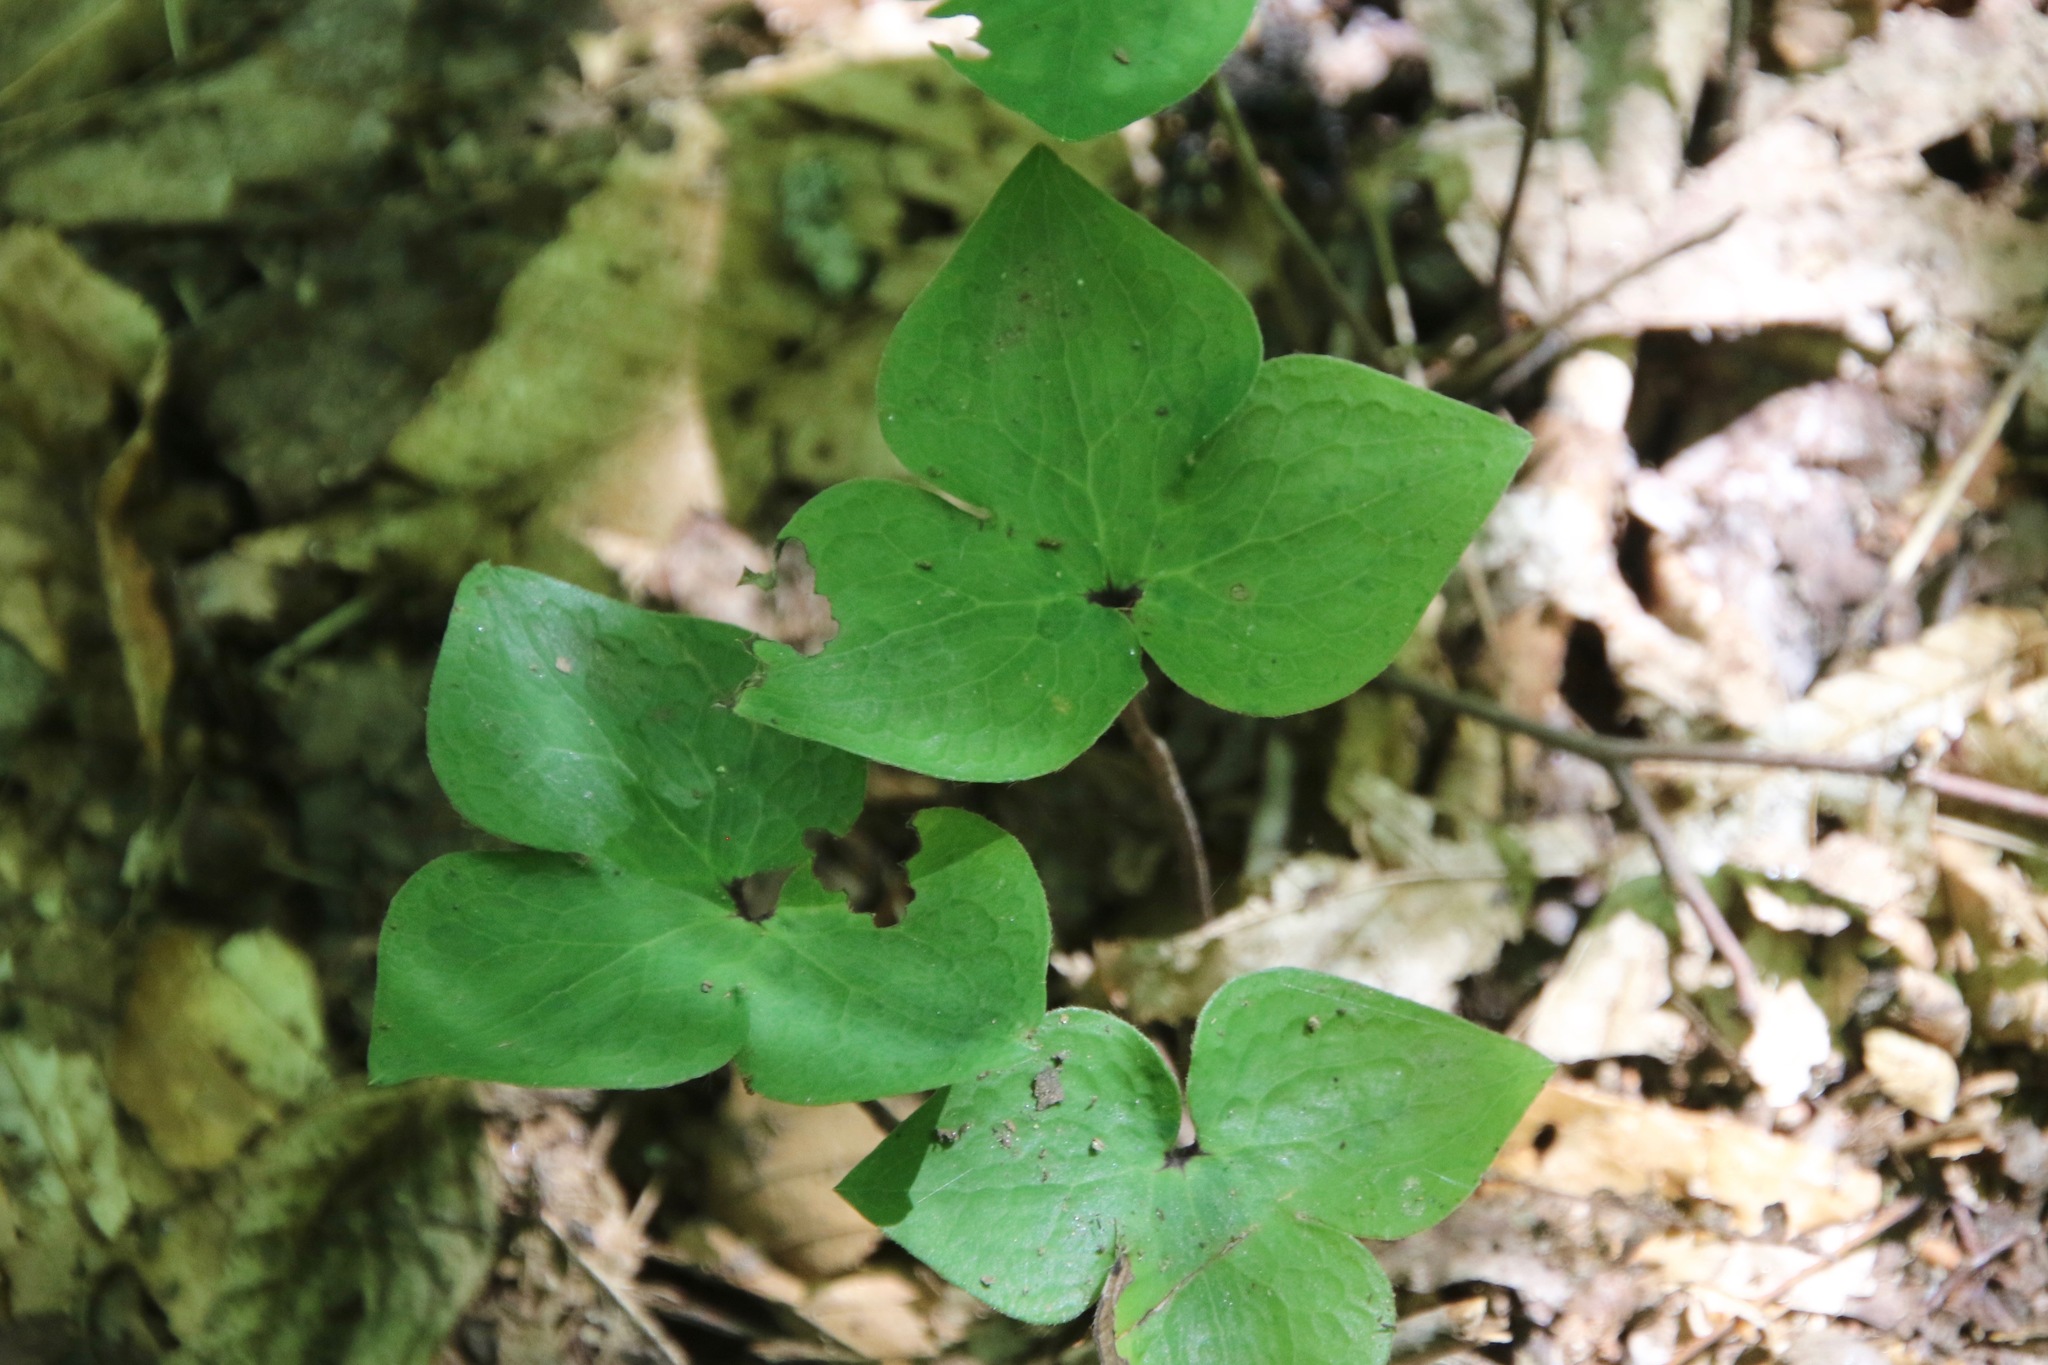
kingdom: Plantae
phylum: Tracheophyta
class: Magnoliopsida
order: Ranunculales
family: Ranunculaceae
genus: Hepatica
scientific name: Hepatica acutiloba
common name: Sharp-lobed hepatica
